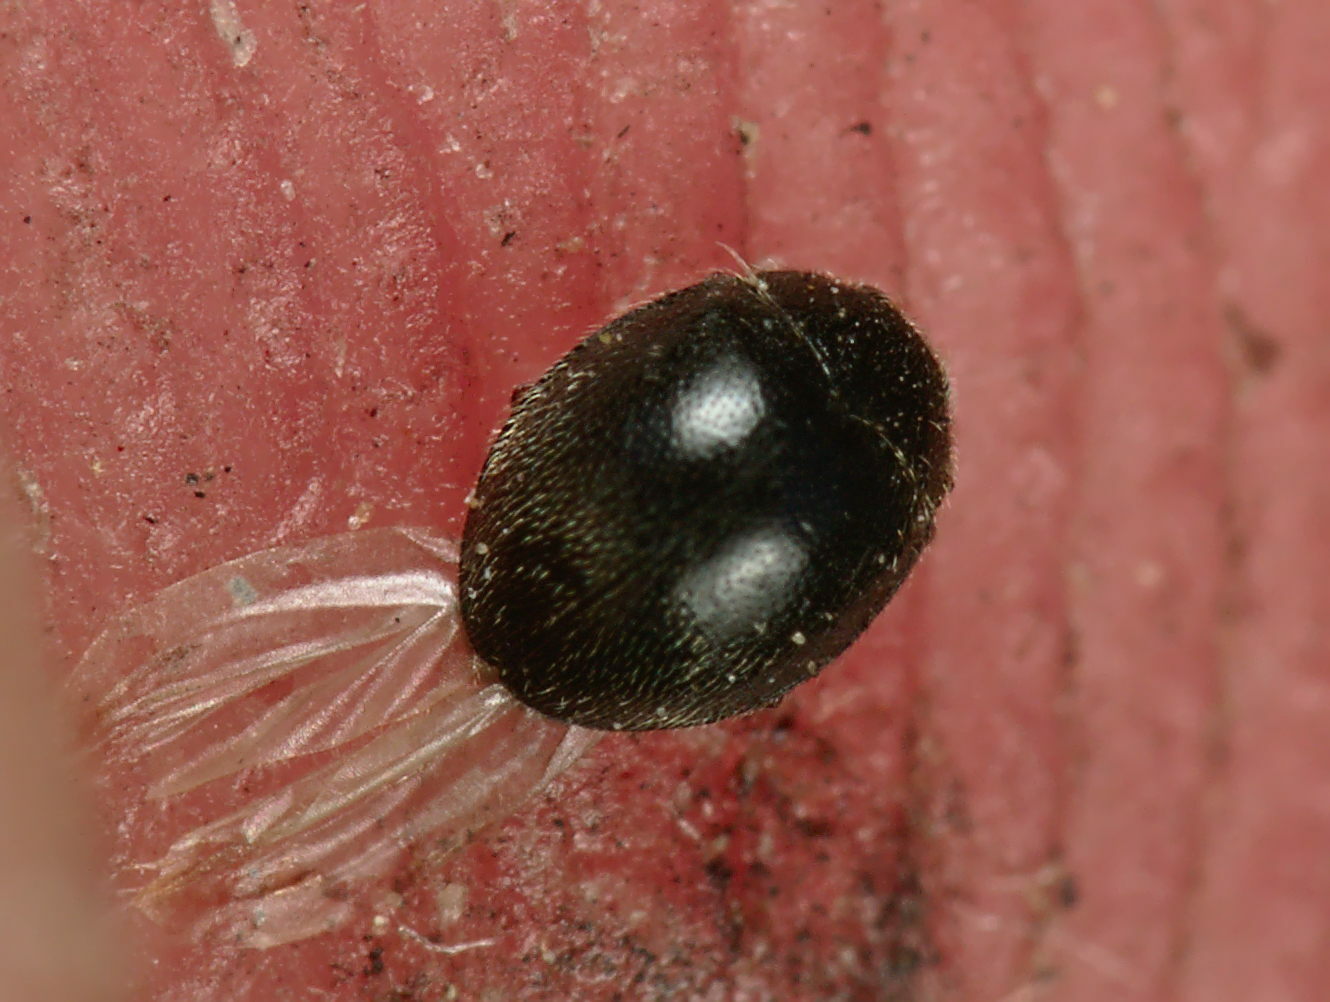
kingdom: Animalia
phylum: Arthropoda
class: Insecta
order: Coleoptera
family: Coccinellidae
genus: Stethorus
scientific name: Stethorus pusillus
